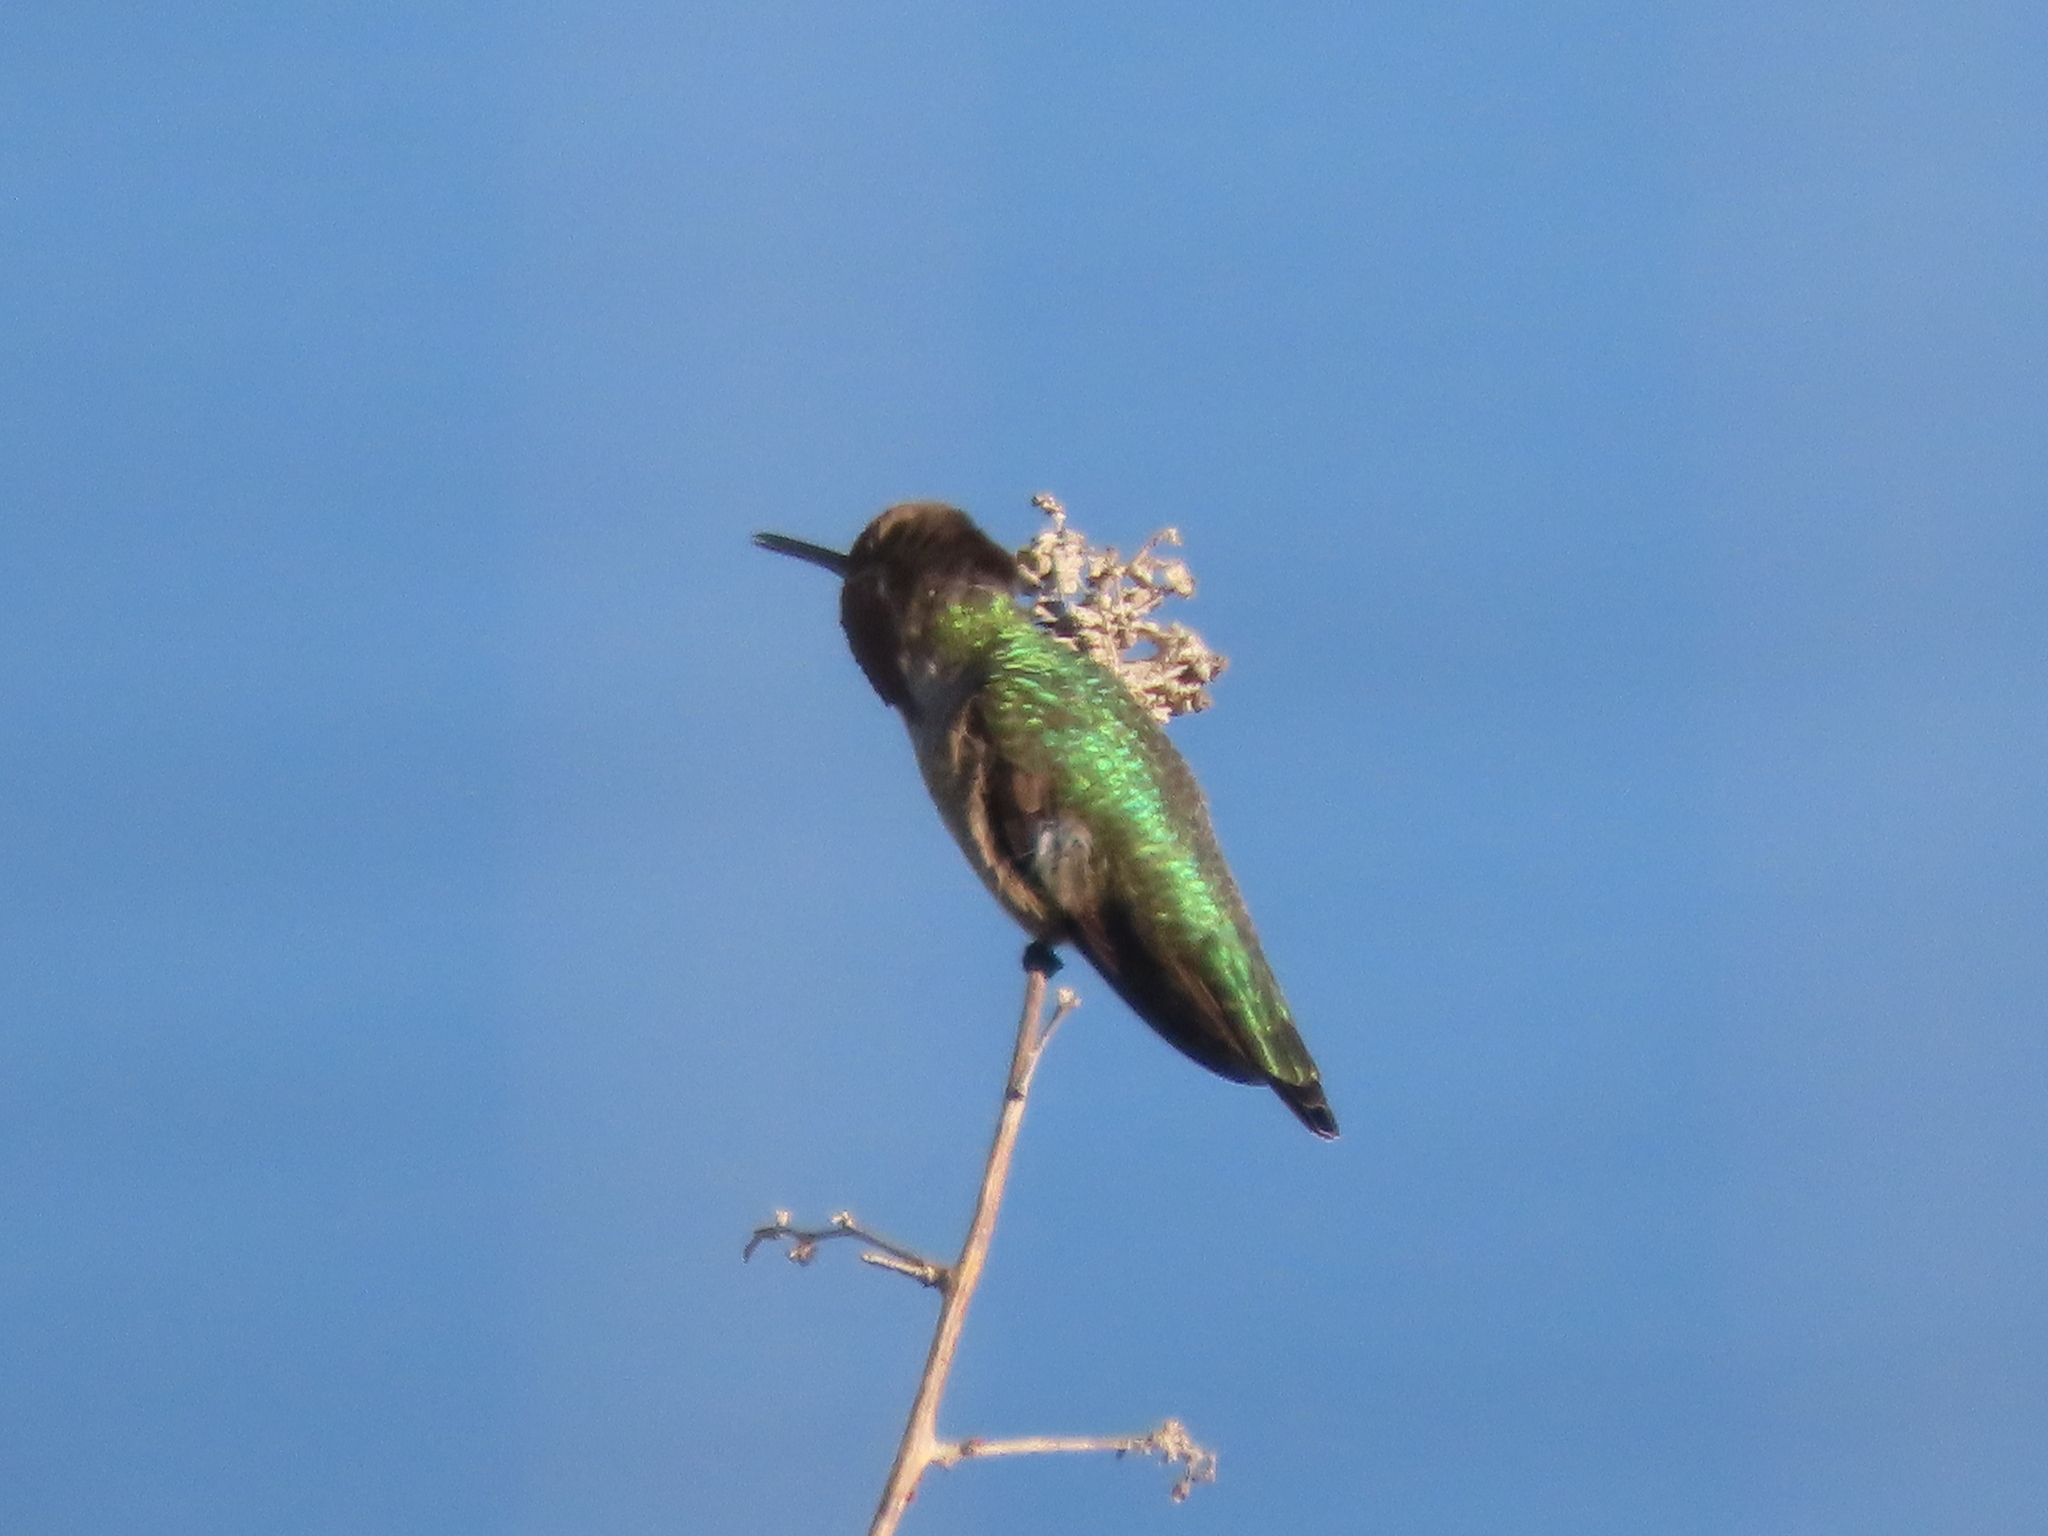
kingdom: Animalia
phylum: Chordata
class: Aves
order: Apodiformes
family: Trochilidae
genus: Calypte
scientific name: Calypte anna
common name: Anna's hummingbird
